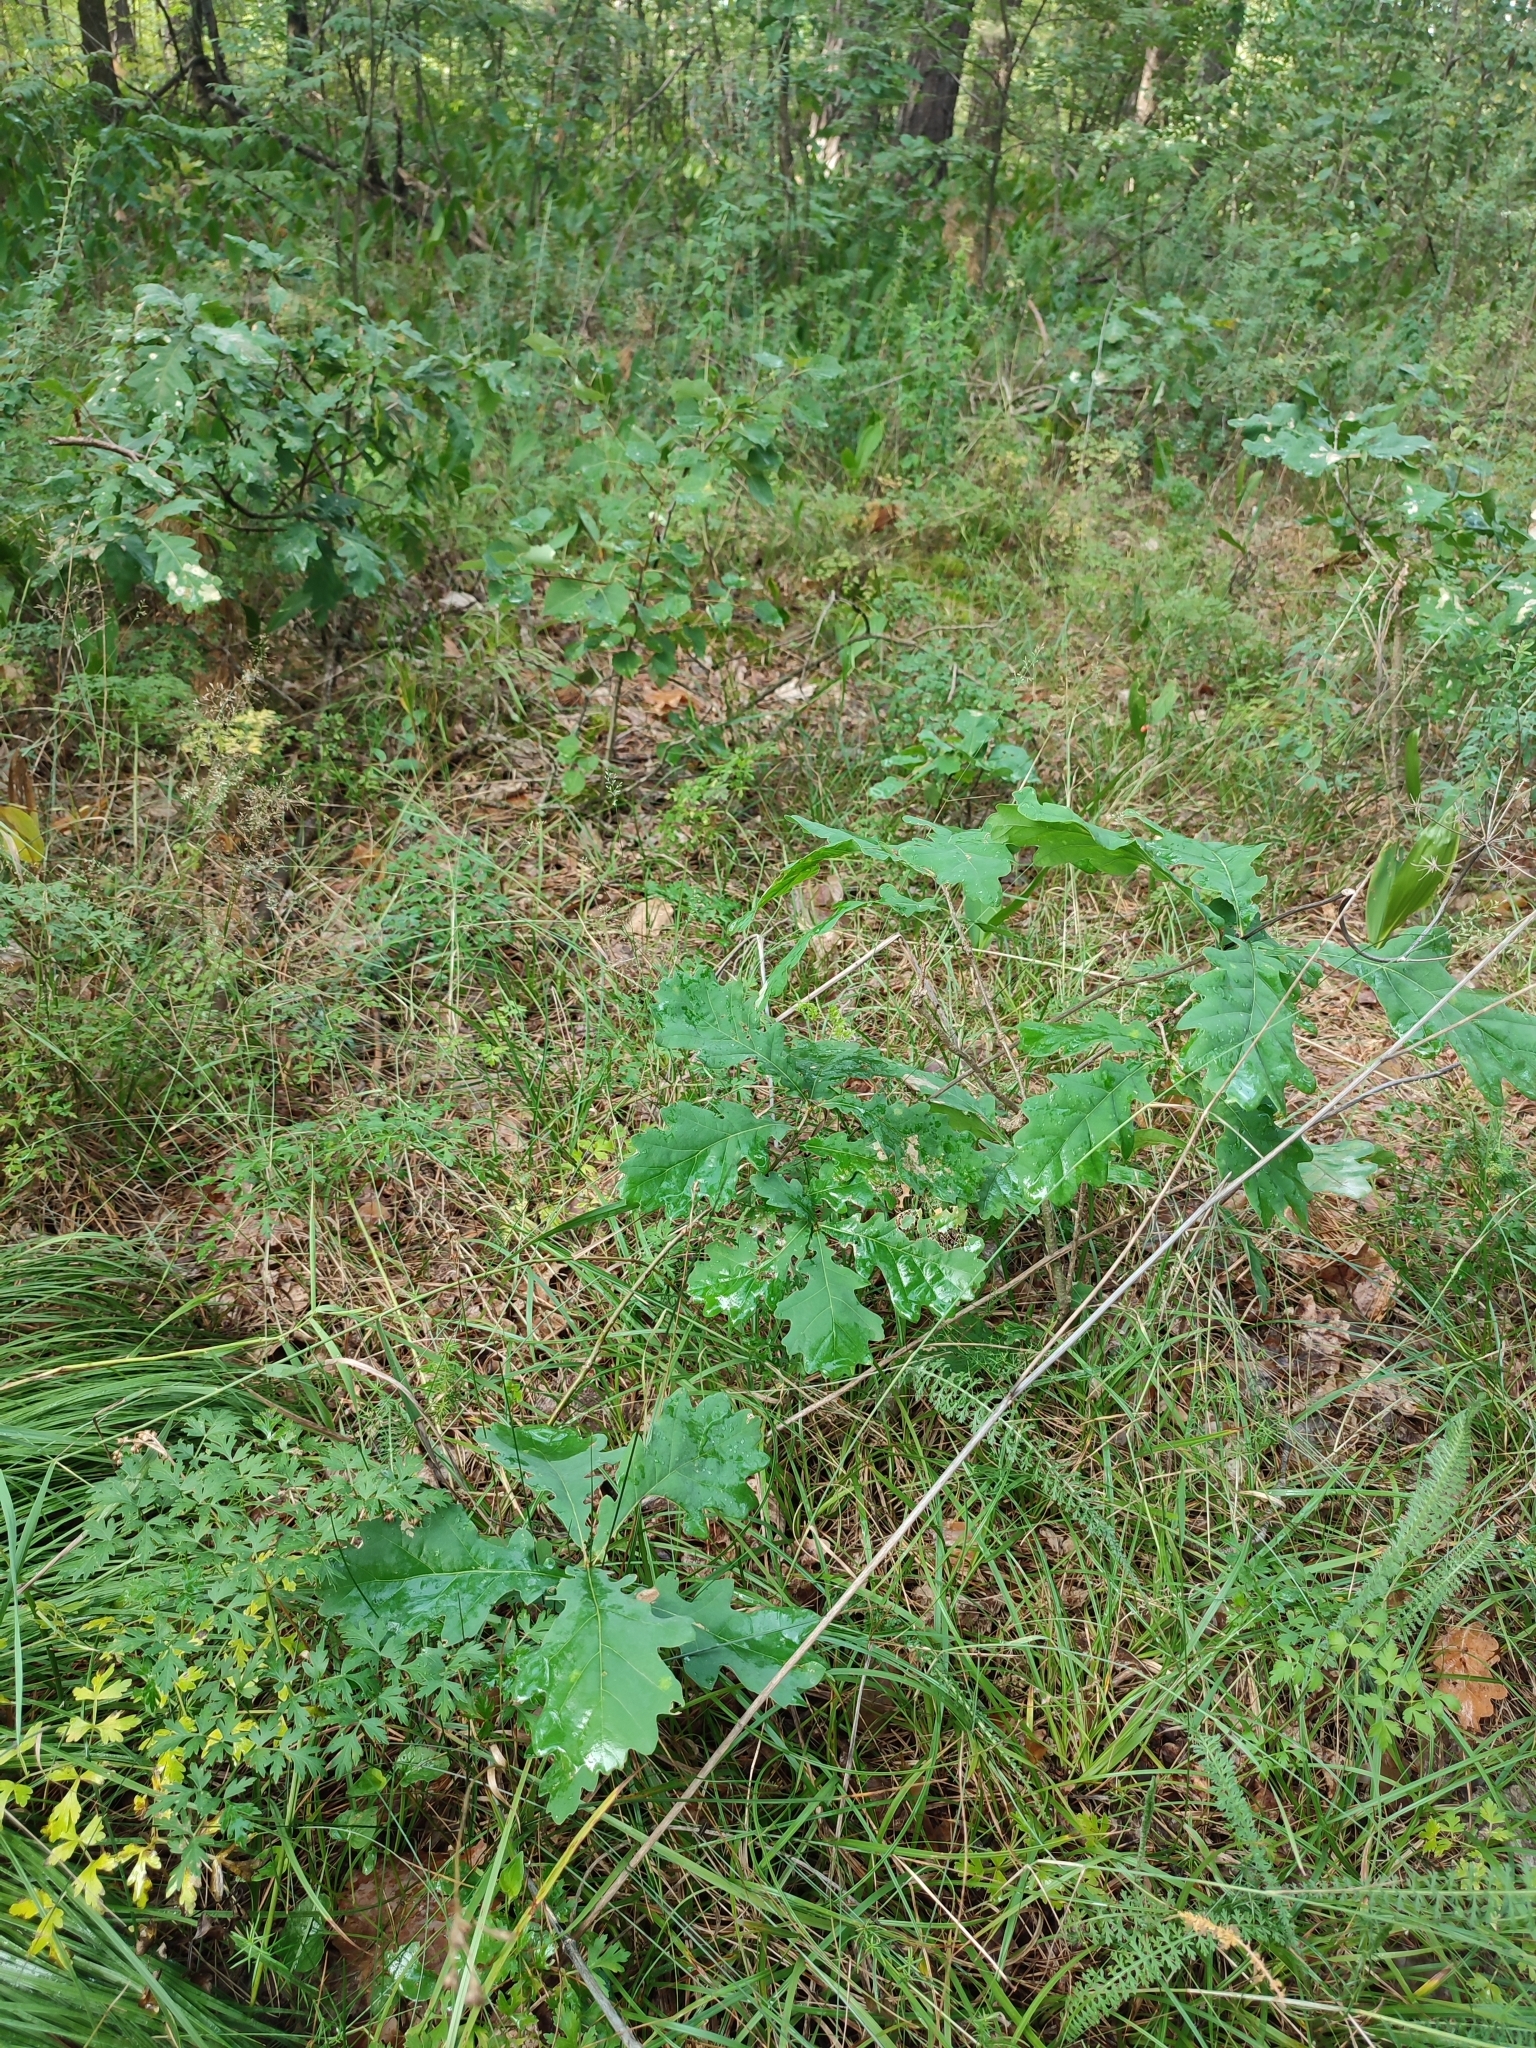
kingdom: Plantae
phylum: Tracheophyta
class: Magnoliopsida
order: Fagales
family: Fagaceae
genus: Quercus
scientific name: Quercus robur
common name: Pedunculate oak
